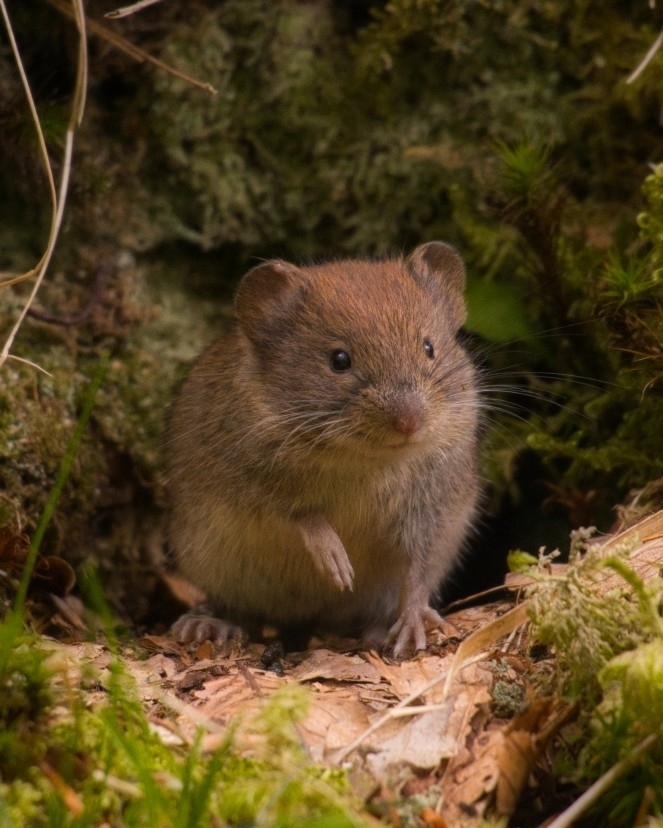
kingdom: Animalia
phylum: Chordata
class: Mammalia
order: Rodentia
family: Cricetidae
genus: Myodes
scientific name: Myodes glareolus
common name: Bank vole
